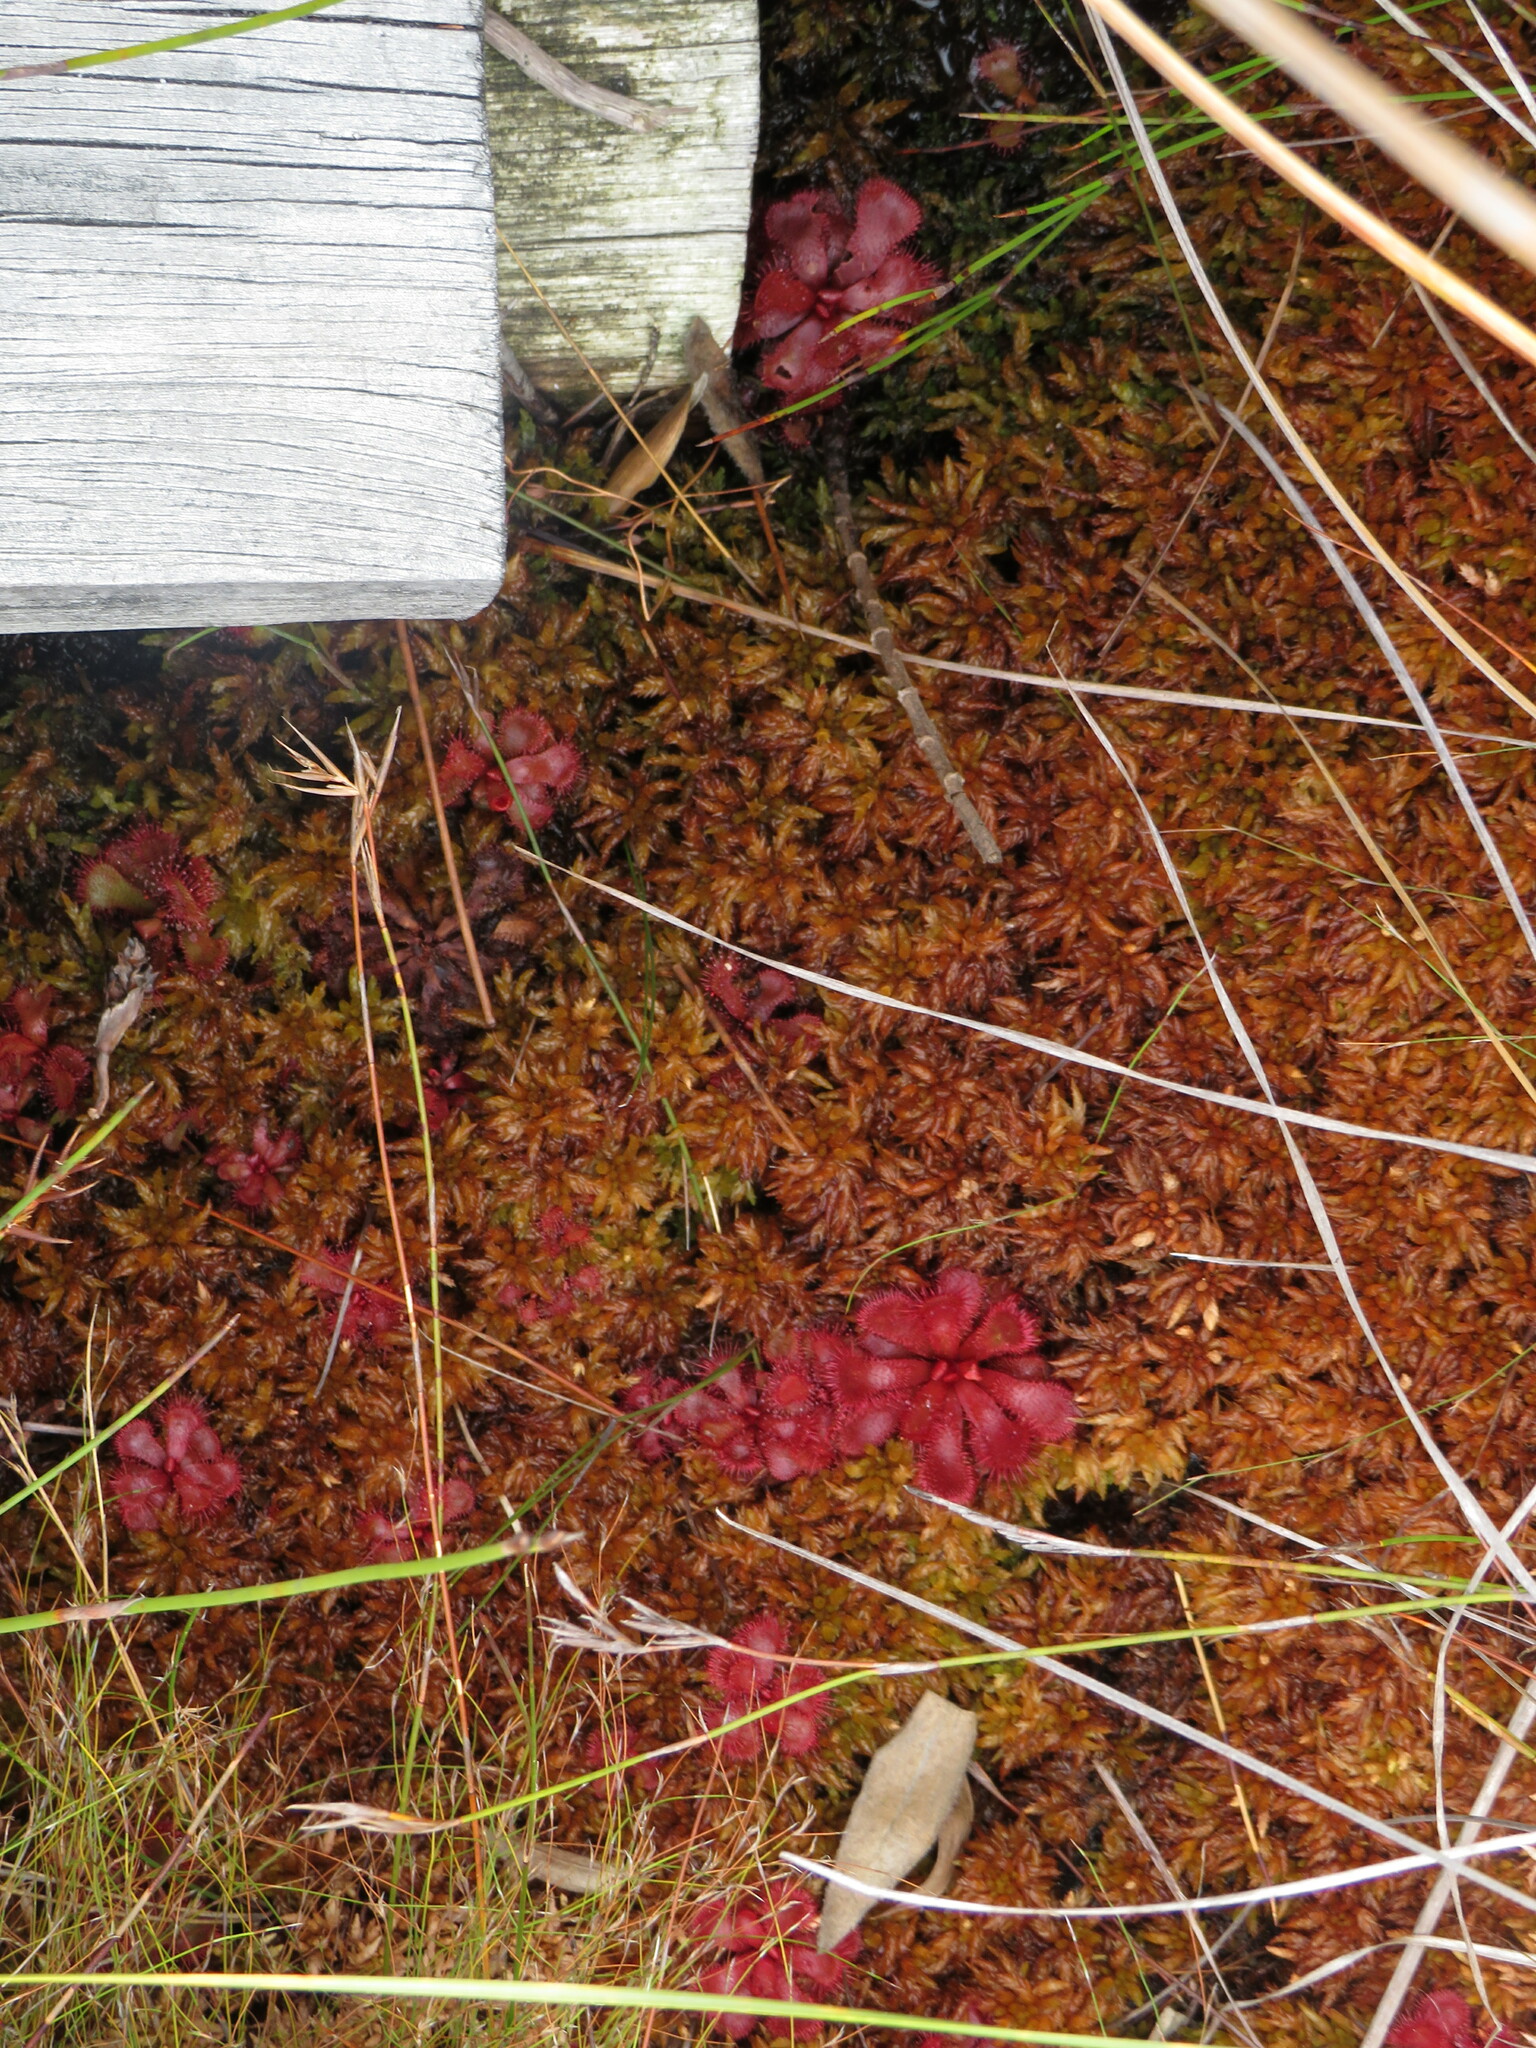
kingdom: Plantae
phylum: Tracheophyta
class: Magnoliopsida
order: Caryophyllales
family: Droseraceae
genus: Drosera
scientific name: Drosera slackii
